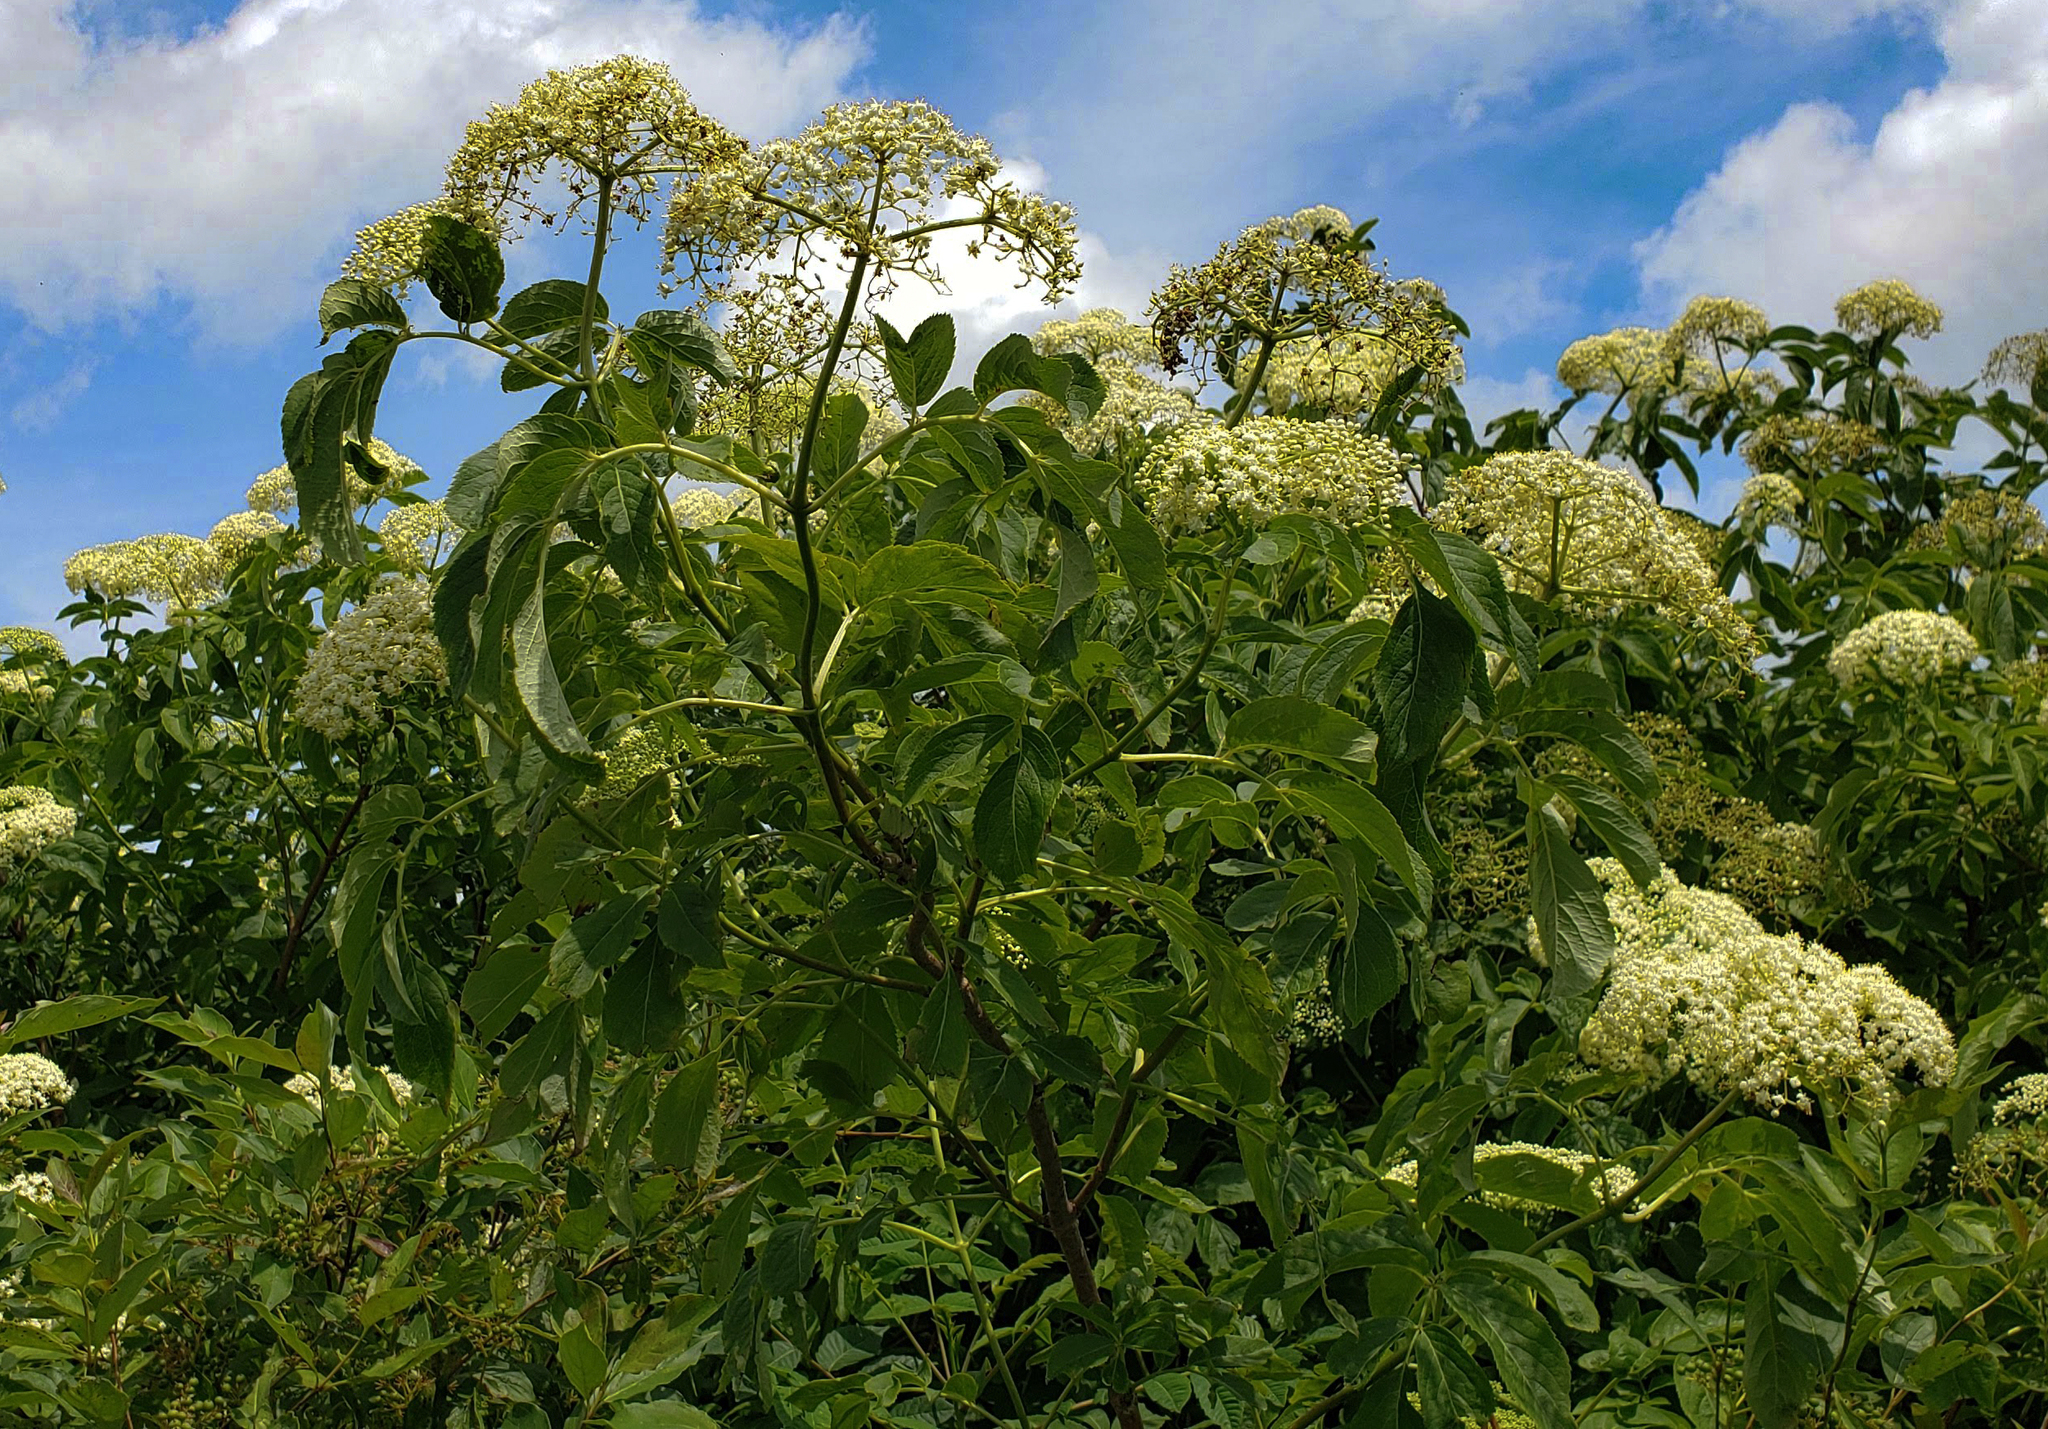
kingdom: Plantae
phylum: Tracheophyta
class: Magnoliopsida
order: Dipsacales
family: Viburnaceae
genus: Sambucus
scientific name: Sambucus canadensis
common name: American elder
